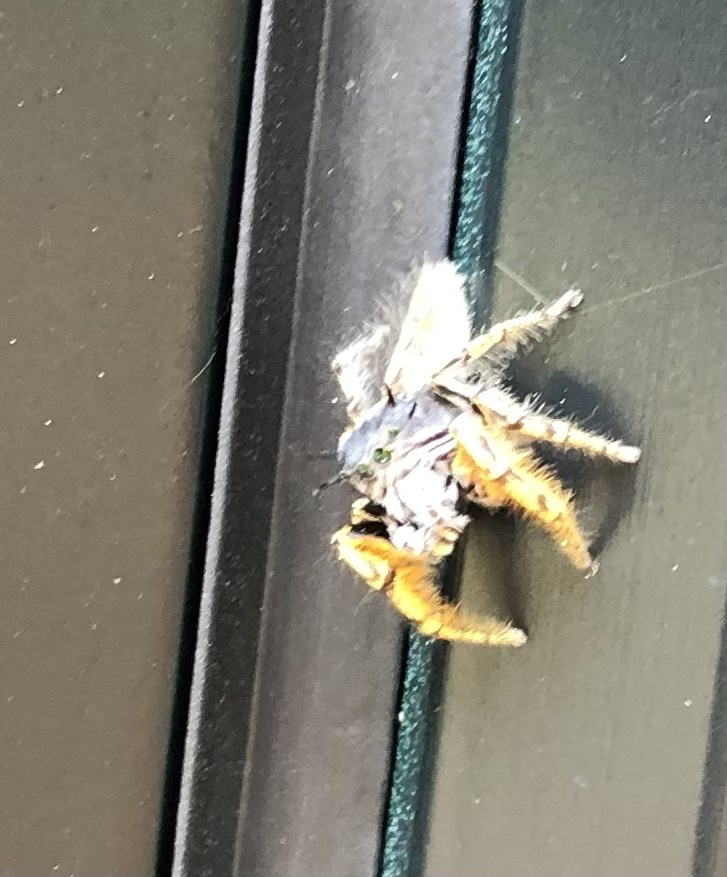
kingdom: Animalia
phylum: Arthropoda
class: Arachnida
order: Araneae
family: Salticidae
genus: Phidippus
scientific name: Phidippus mystaceus
